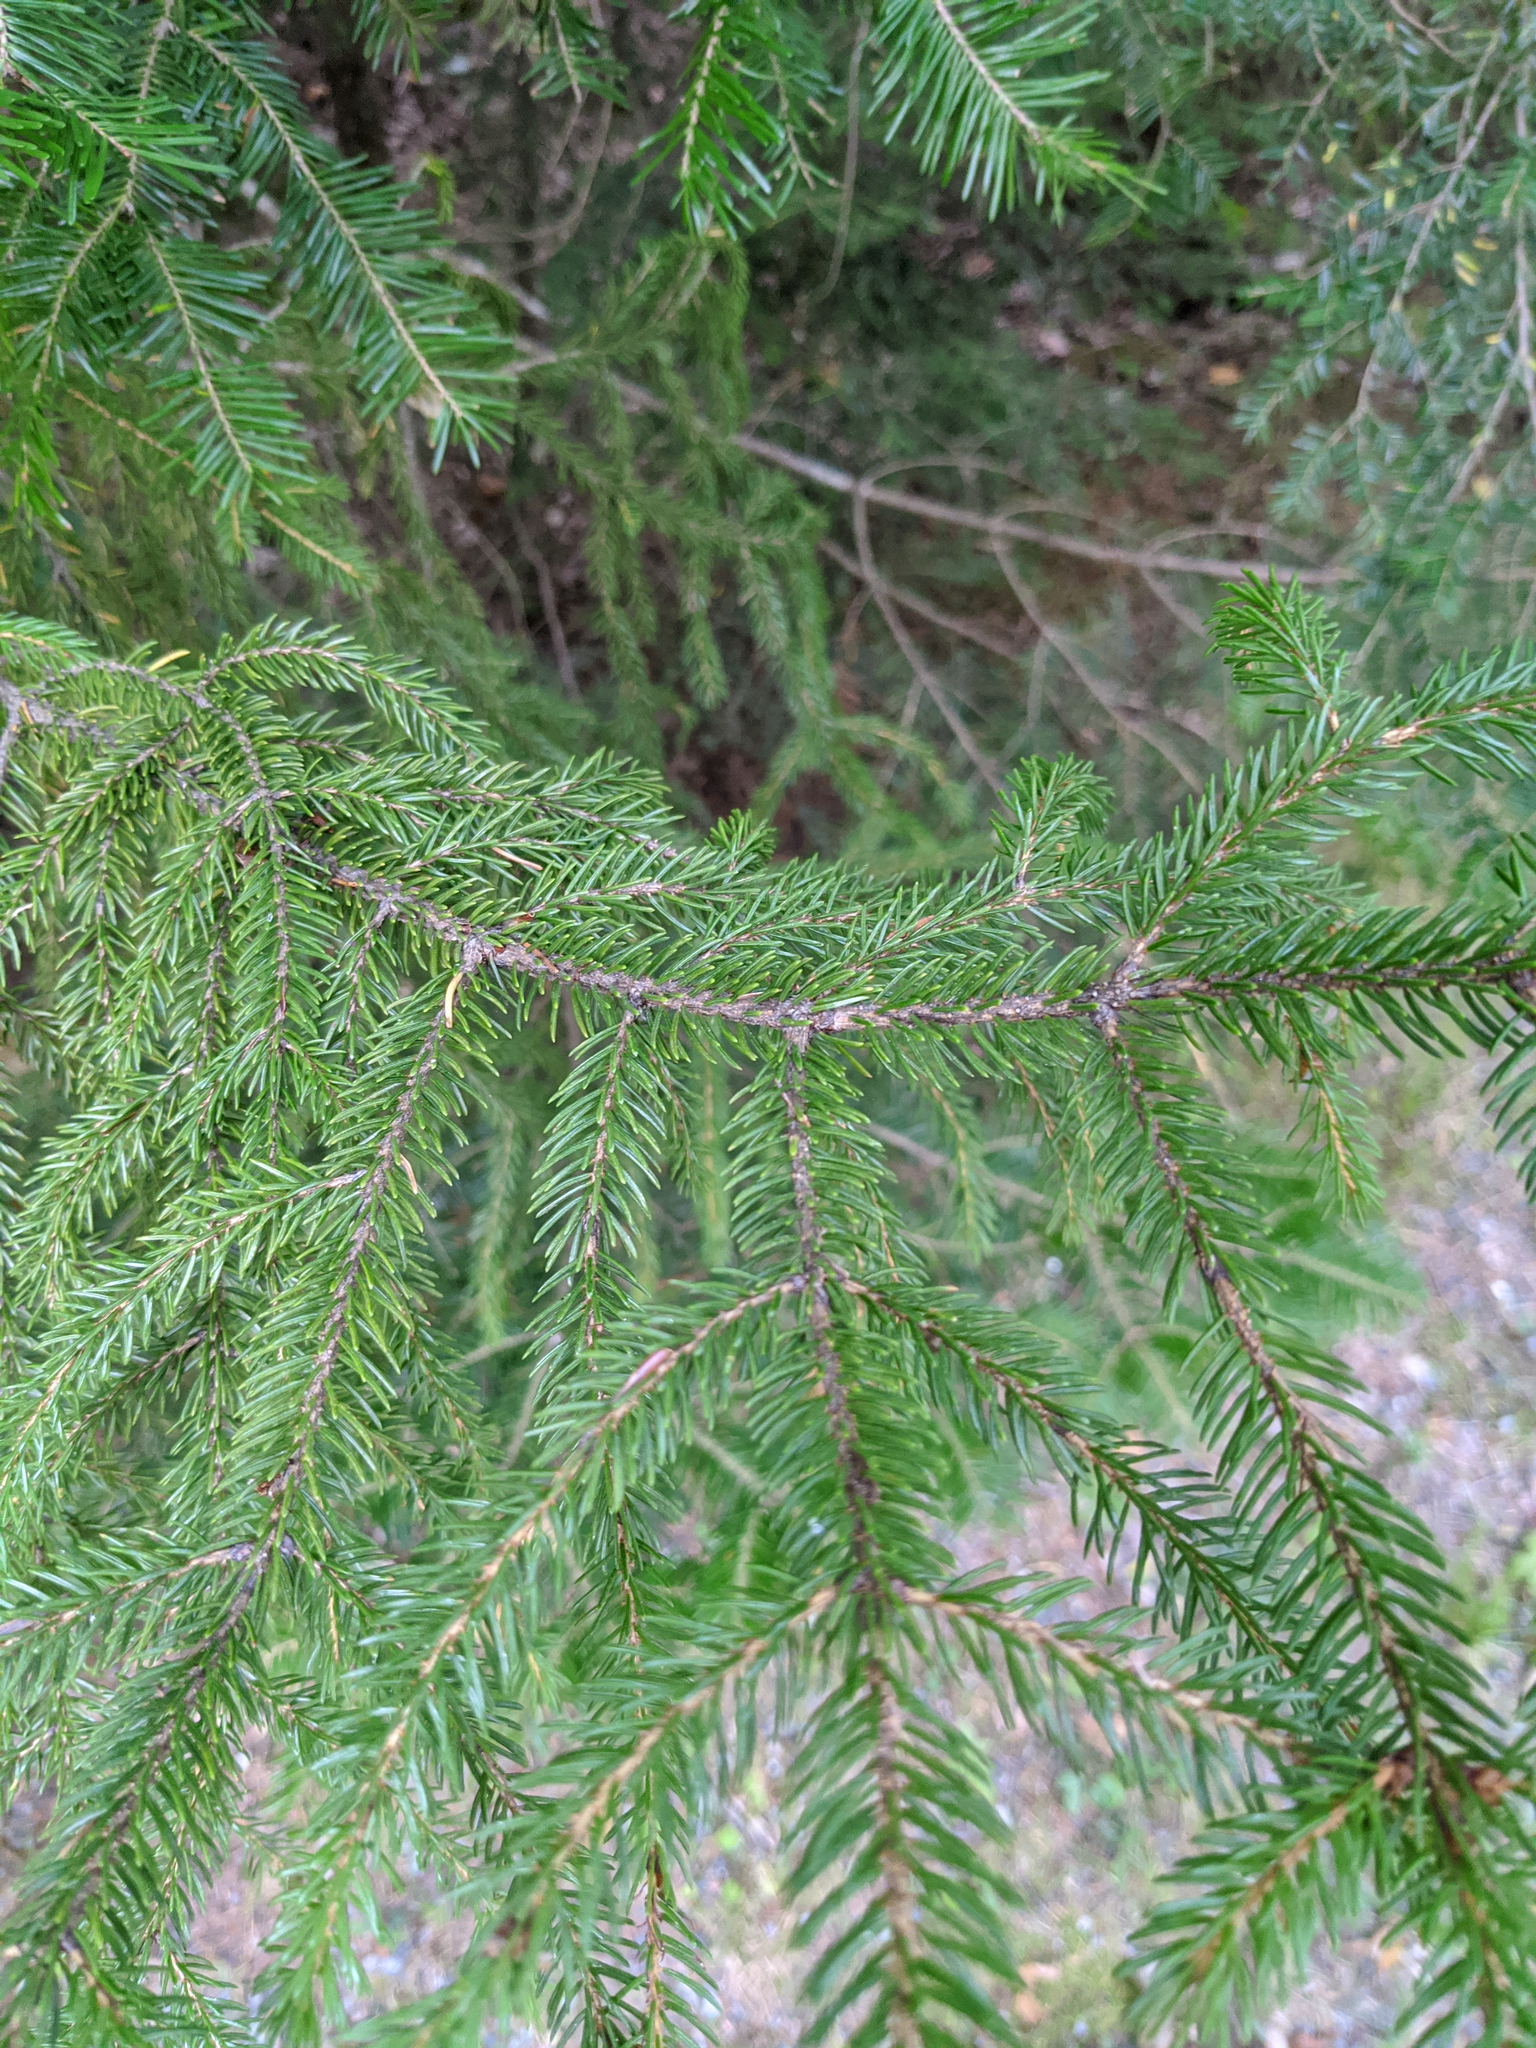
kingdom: Plantae
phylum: Tracheophyta
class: Pinopsida
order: Pinales
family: Pinaceae
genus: Picea
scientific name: Picea rubens
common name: Red spruce
